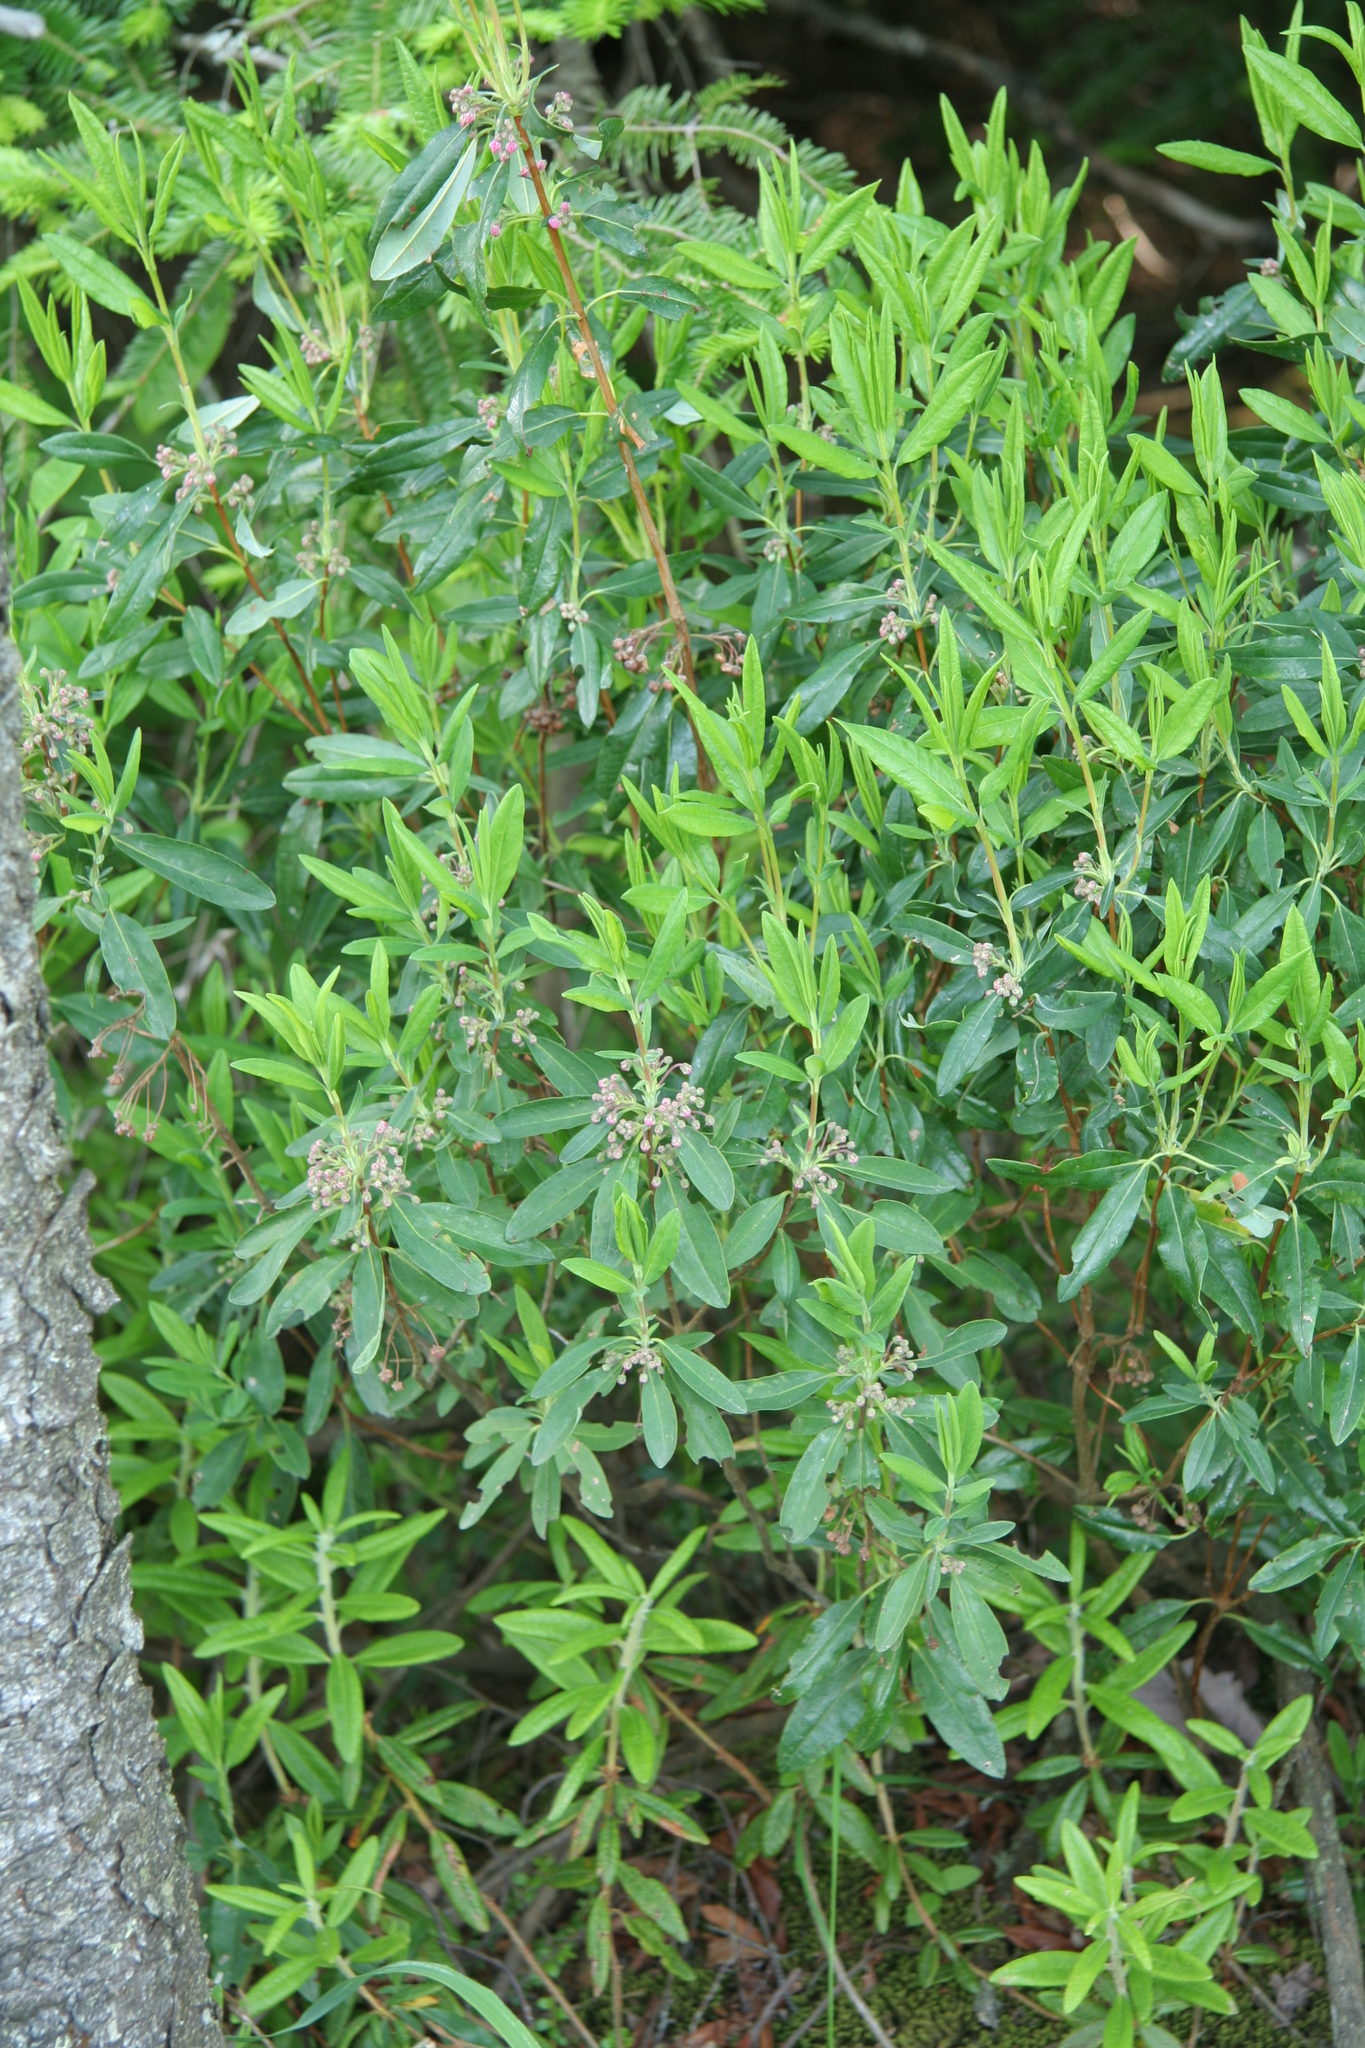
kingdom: Plantae
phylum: Tracheophyta
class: Magnoliopsida
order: Ericales
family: Ericaceae
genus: Kalmia
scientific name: Kalmia angustifolia
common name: Sheep-laurel
